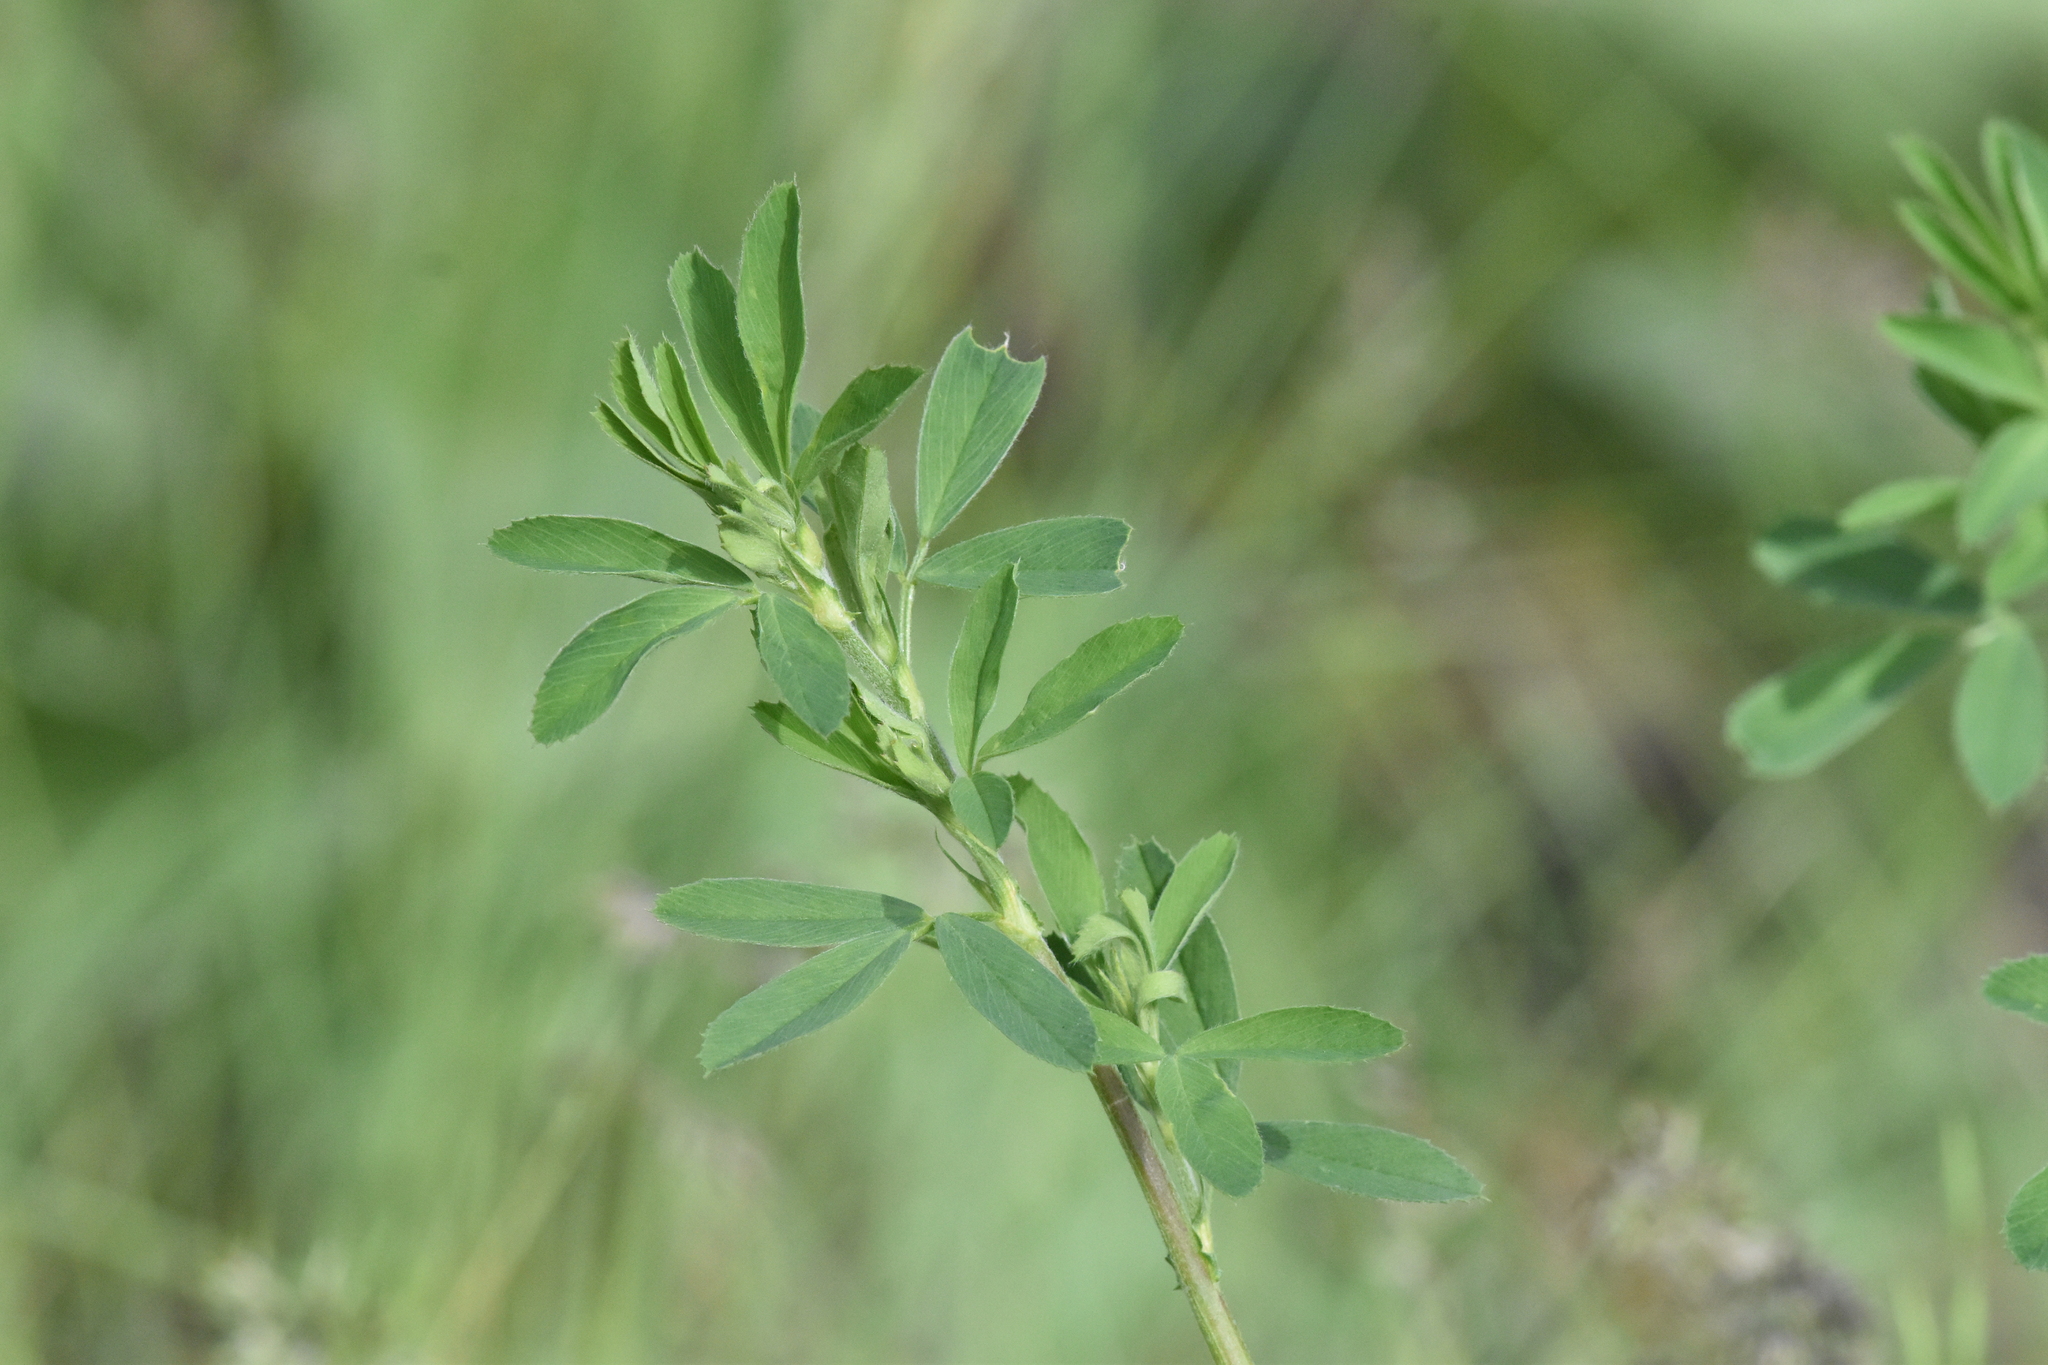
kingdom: Plantae
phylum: Tracheophyta
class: Magnoliopsida
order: Fabales
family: Fabaceae
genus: Medicago
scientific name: Medicago sativa
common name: Alfalfa
